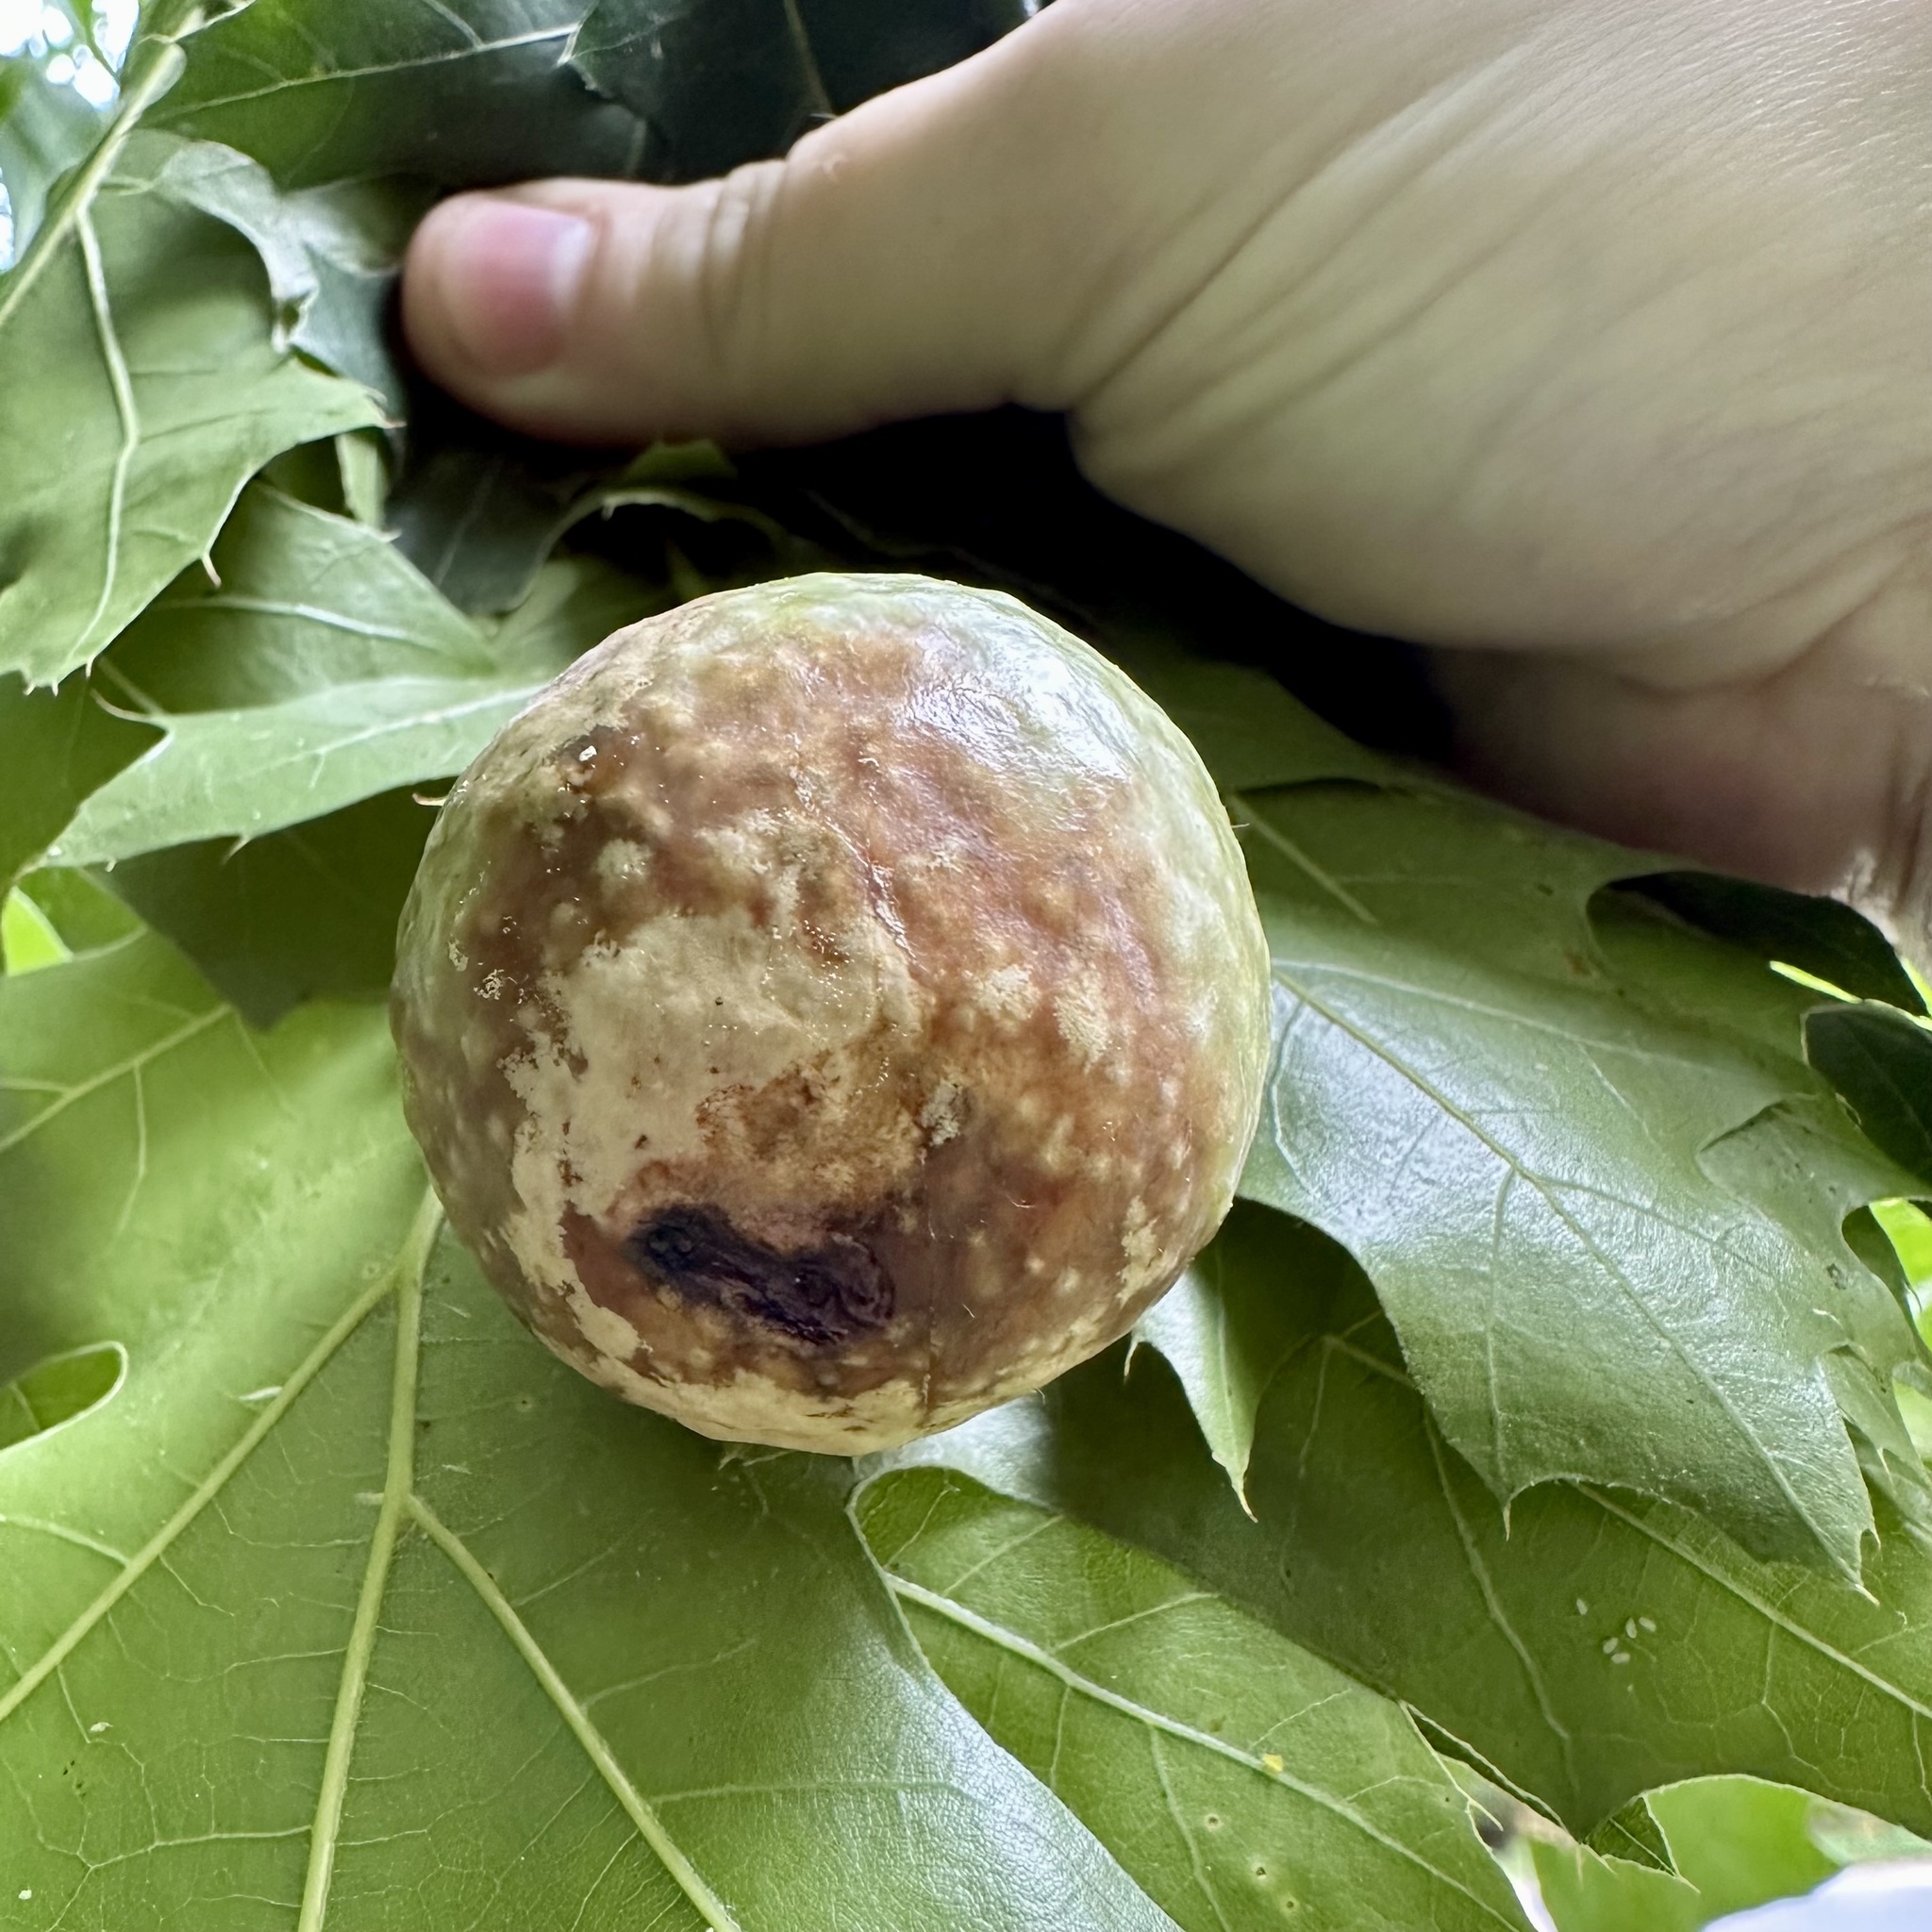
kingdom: Animalia
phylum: Arthropoda
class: Insecta
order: Hymenoptera
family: Cynipidae
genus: Amphibolips
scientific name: Amphibolips
